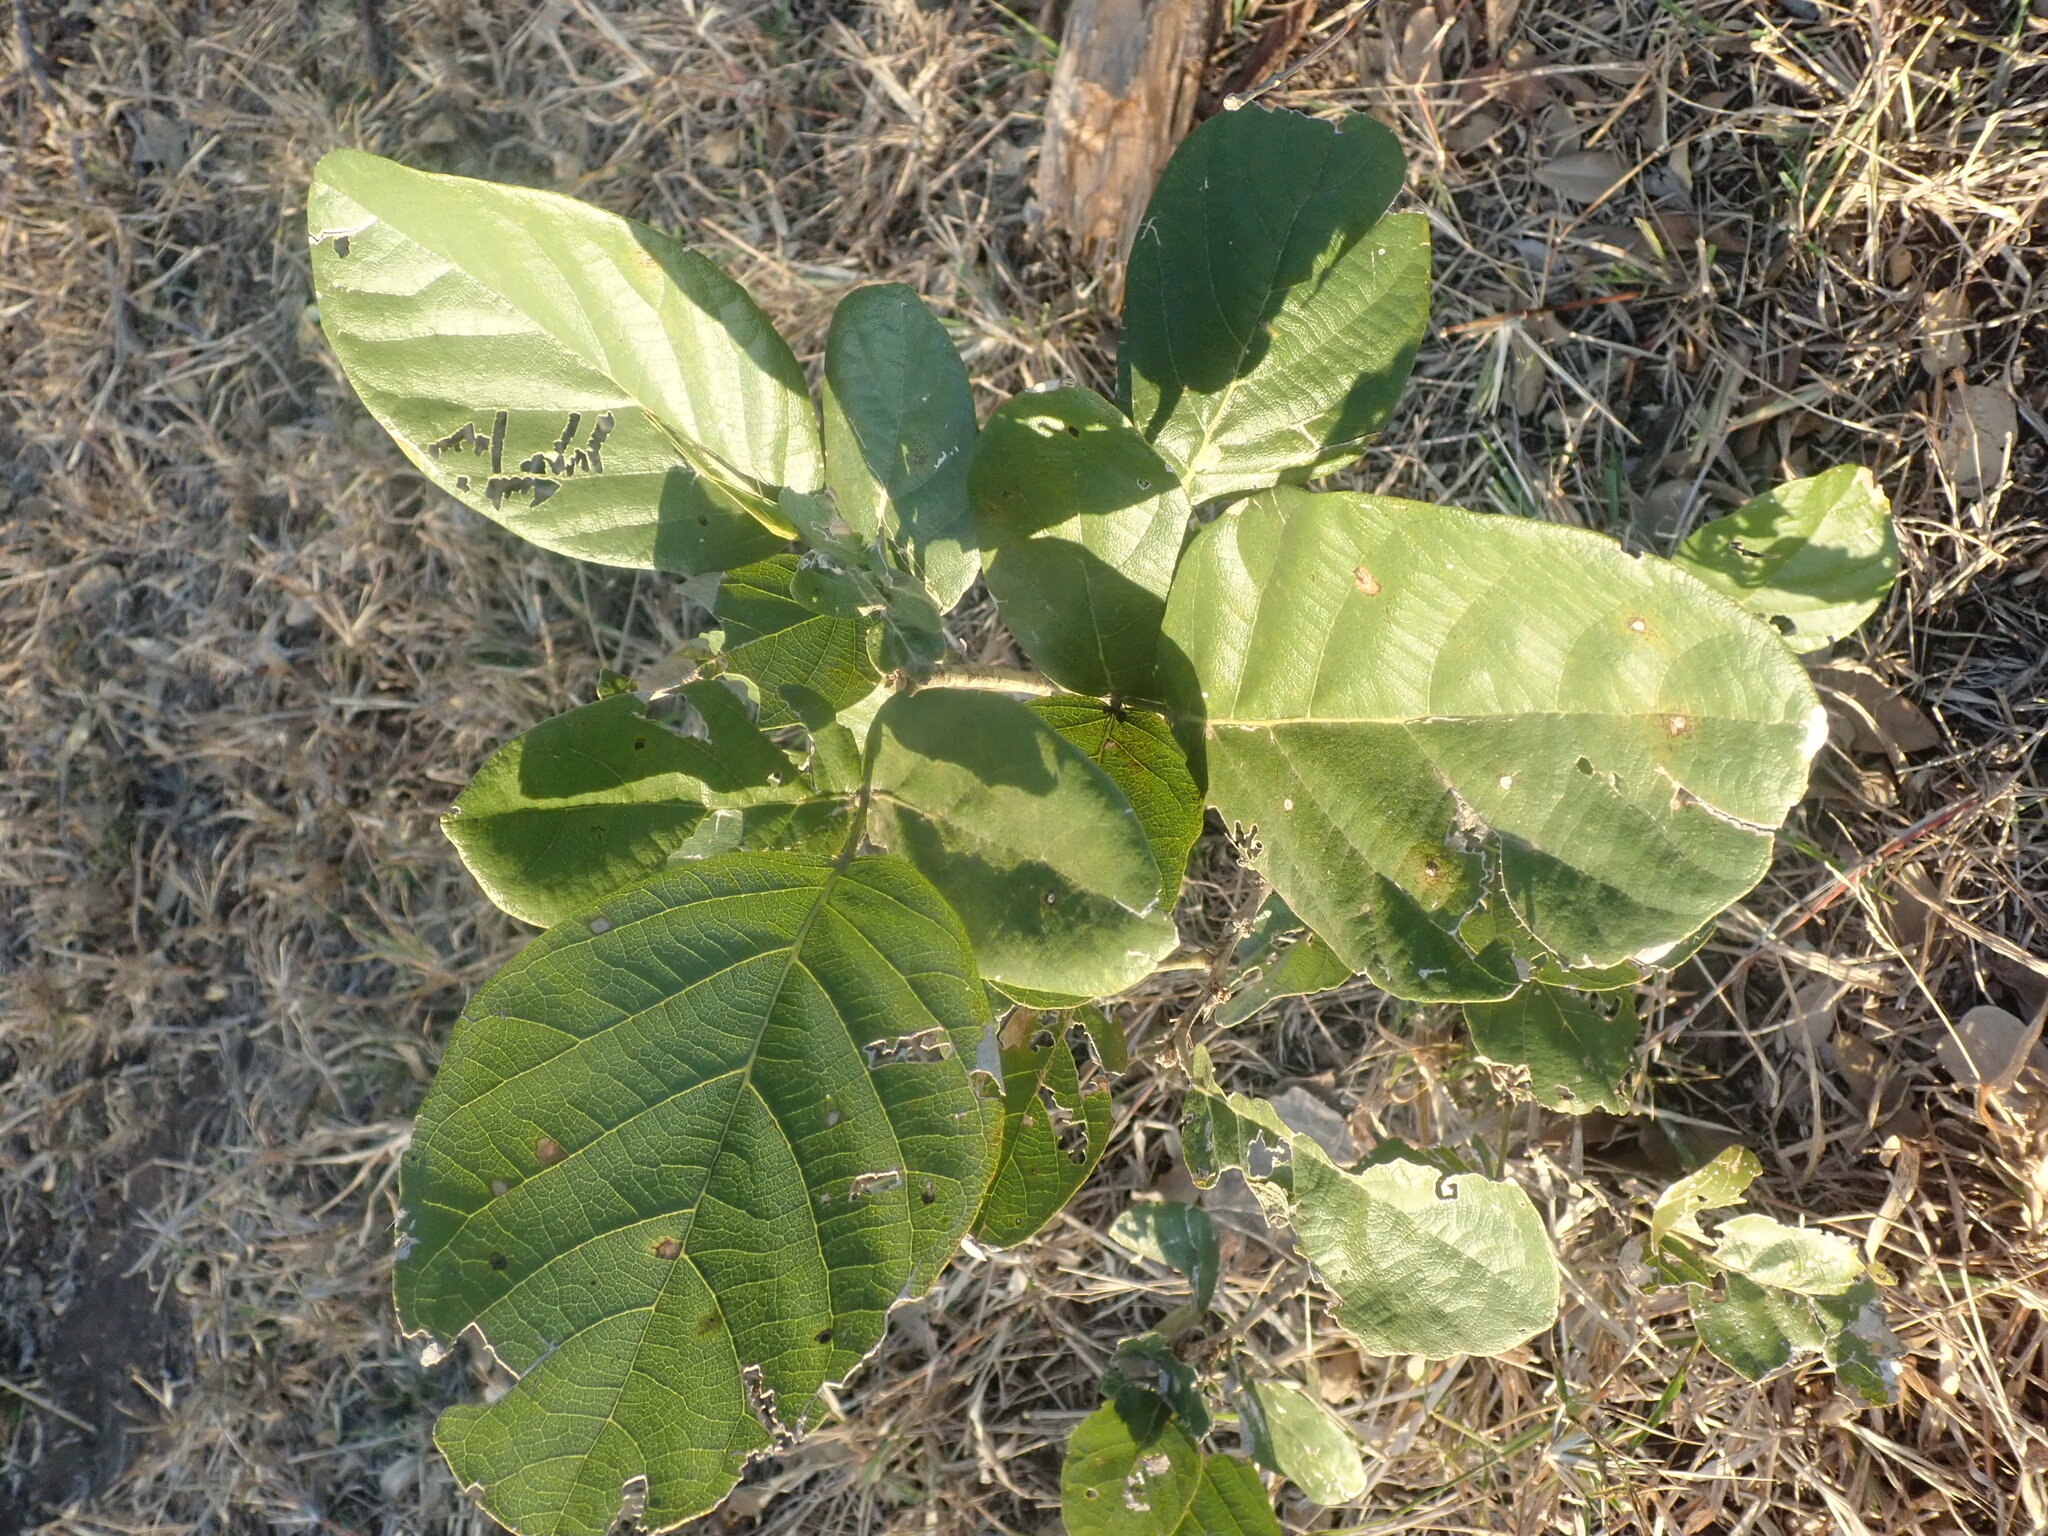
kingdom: Plantae
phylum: Tracheophyta
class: Magnoliopsida
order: Fabales
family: Fabaceae
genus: Philenoptera
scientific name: Philenoptera violacea
